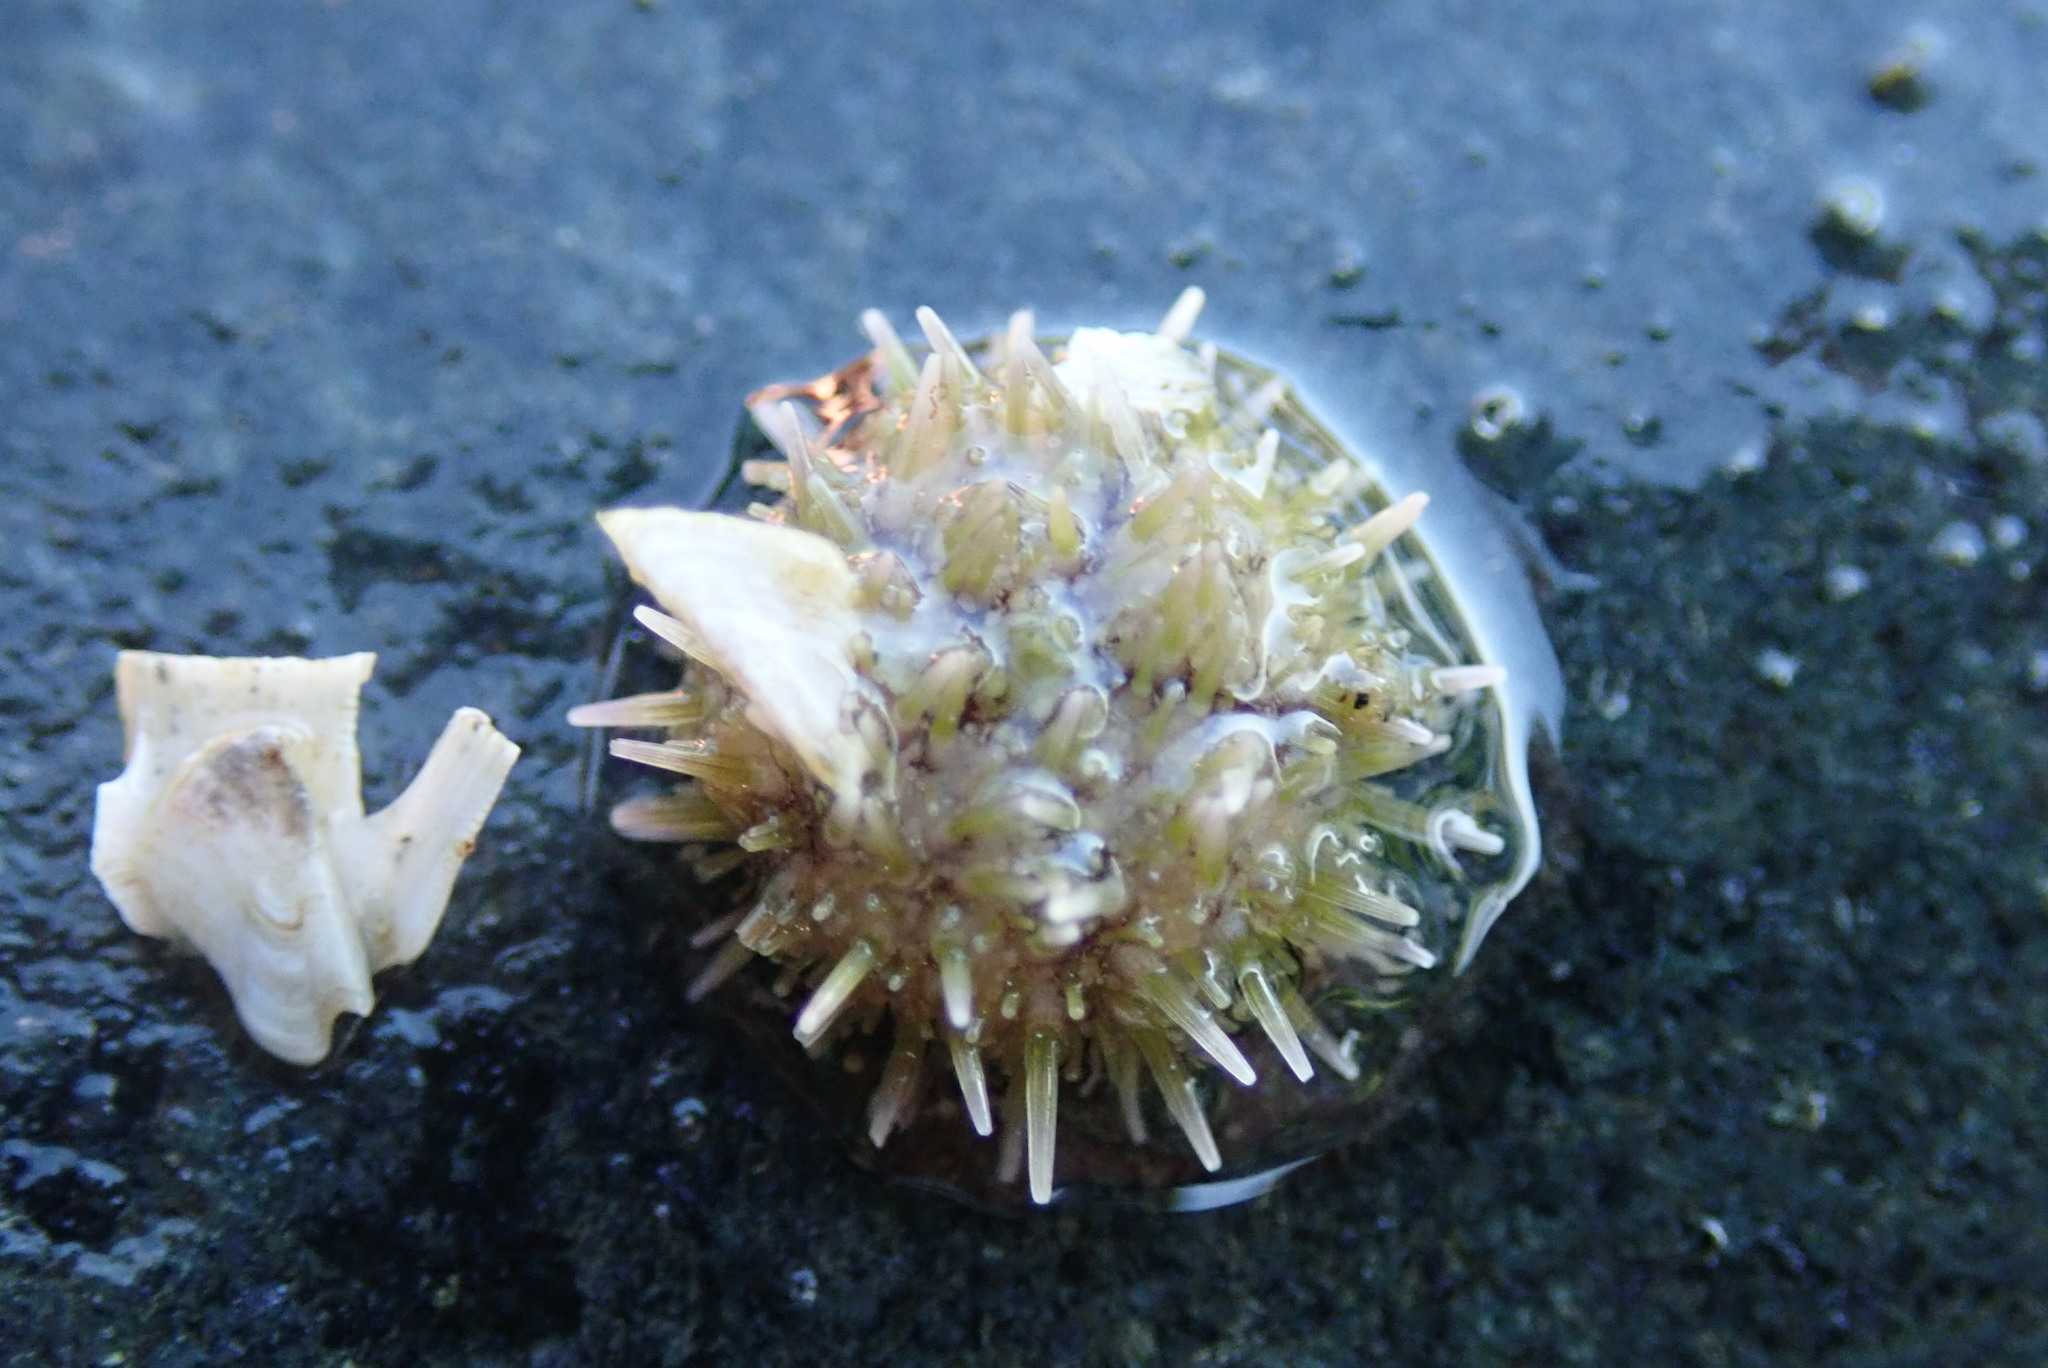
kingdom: Animalia
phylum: Echinodermata
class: Echinoidea
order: Camarodonta
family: Strongylocentrotidae
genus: Strongylocentrotus
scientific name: Strongylocentrotus droebachiensis
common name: Northern sea urchin
